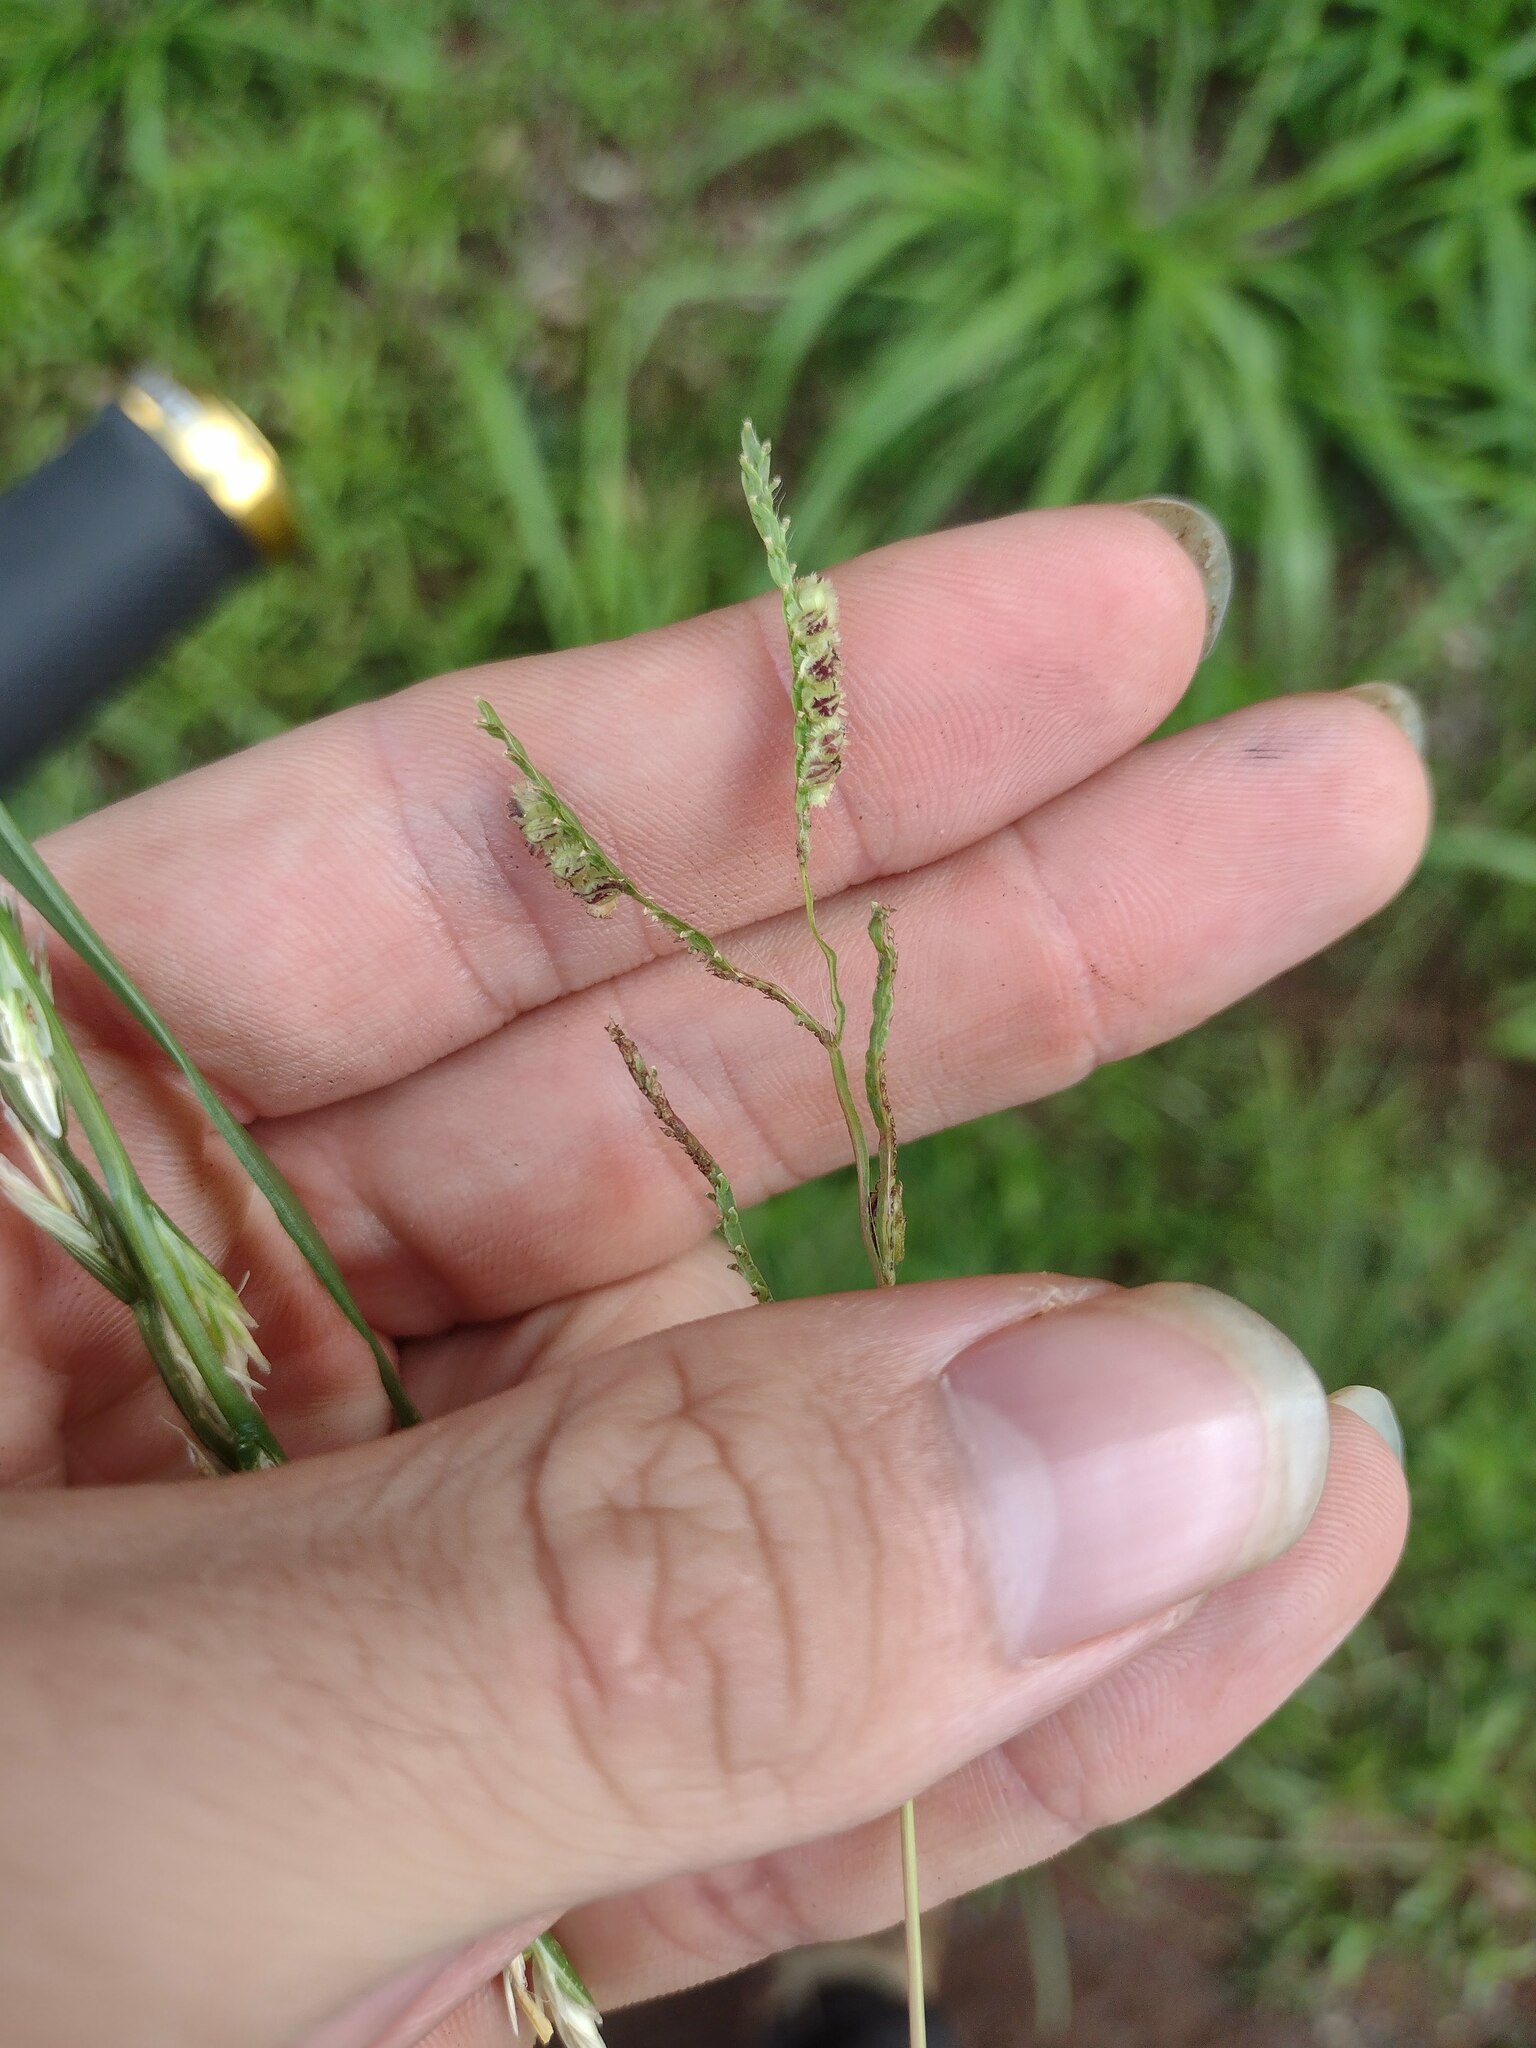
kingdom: Plantae
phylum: Tracheophyta
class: Liliopsida
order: Poales
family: Poaceae
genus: Paspalum
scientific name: Paspalum fimbriatum
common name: Panama crowngrass
